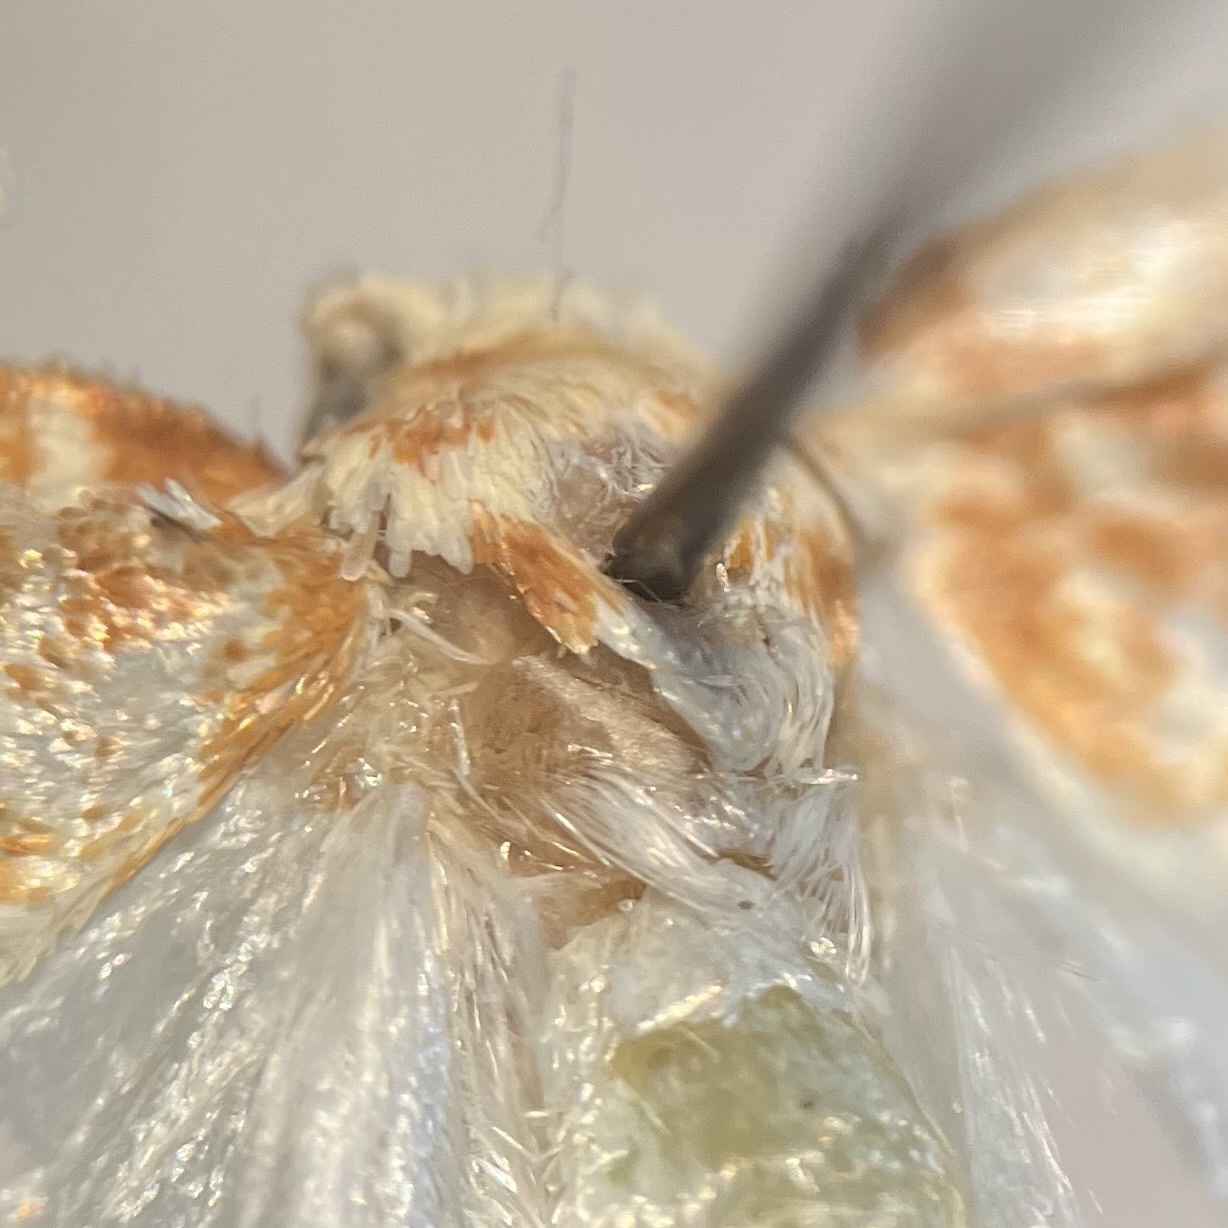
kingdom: Animalia
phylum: Arthropoda
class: Insecta
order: Lepidoptera
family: Tortricidae
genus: Argyrotaenia
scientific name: Argyrotaenia alisellana
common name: White-spotted leafroller moth
